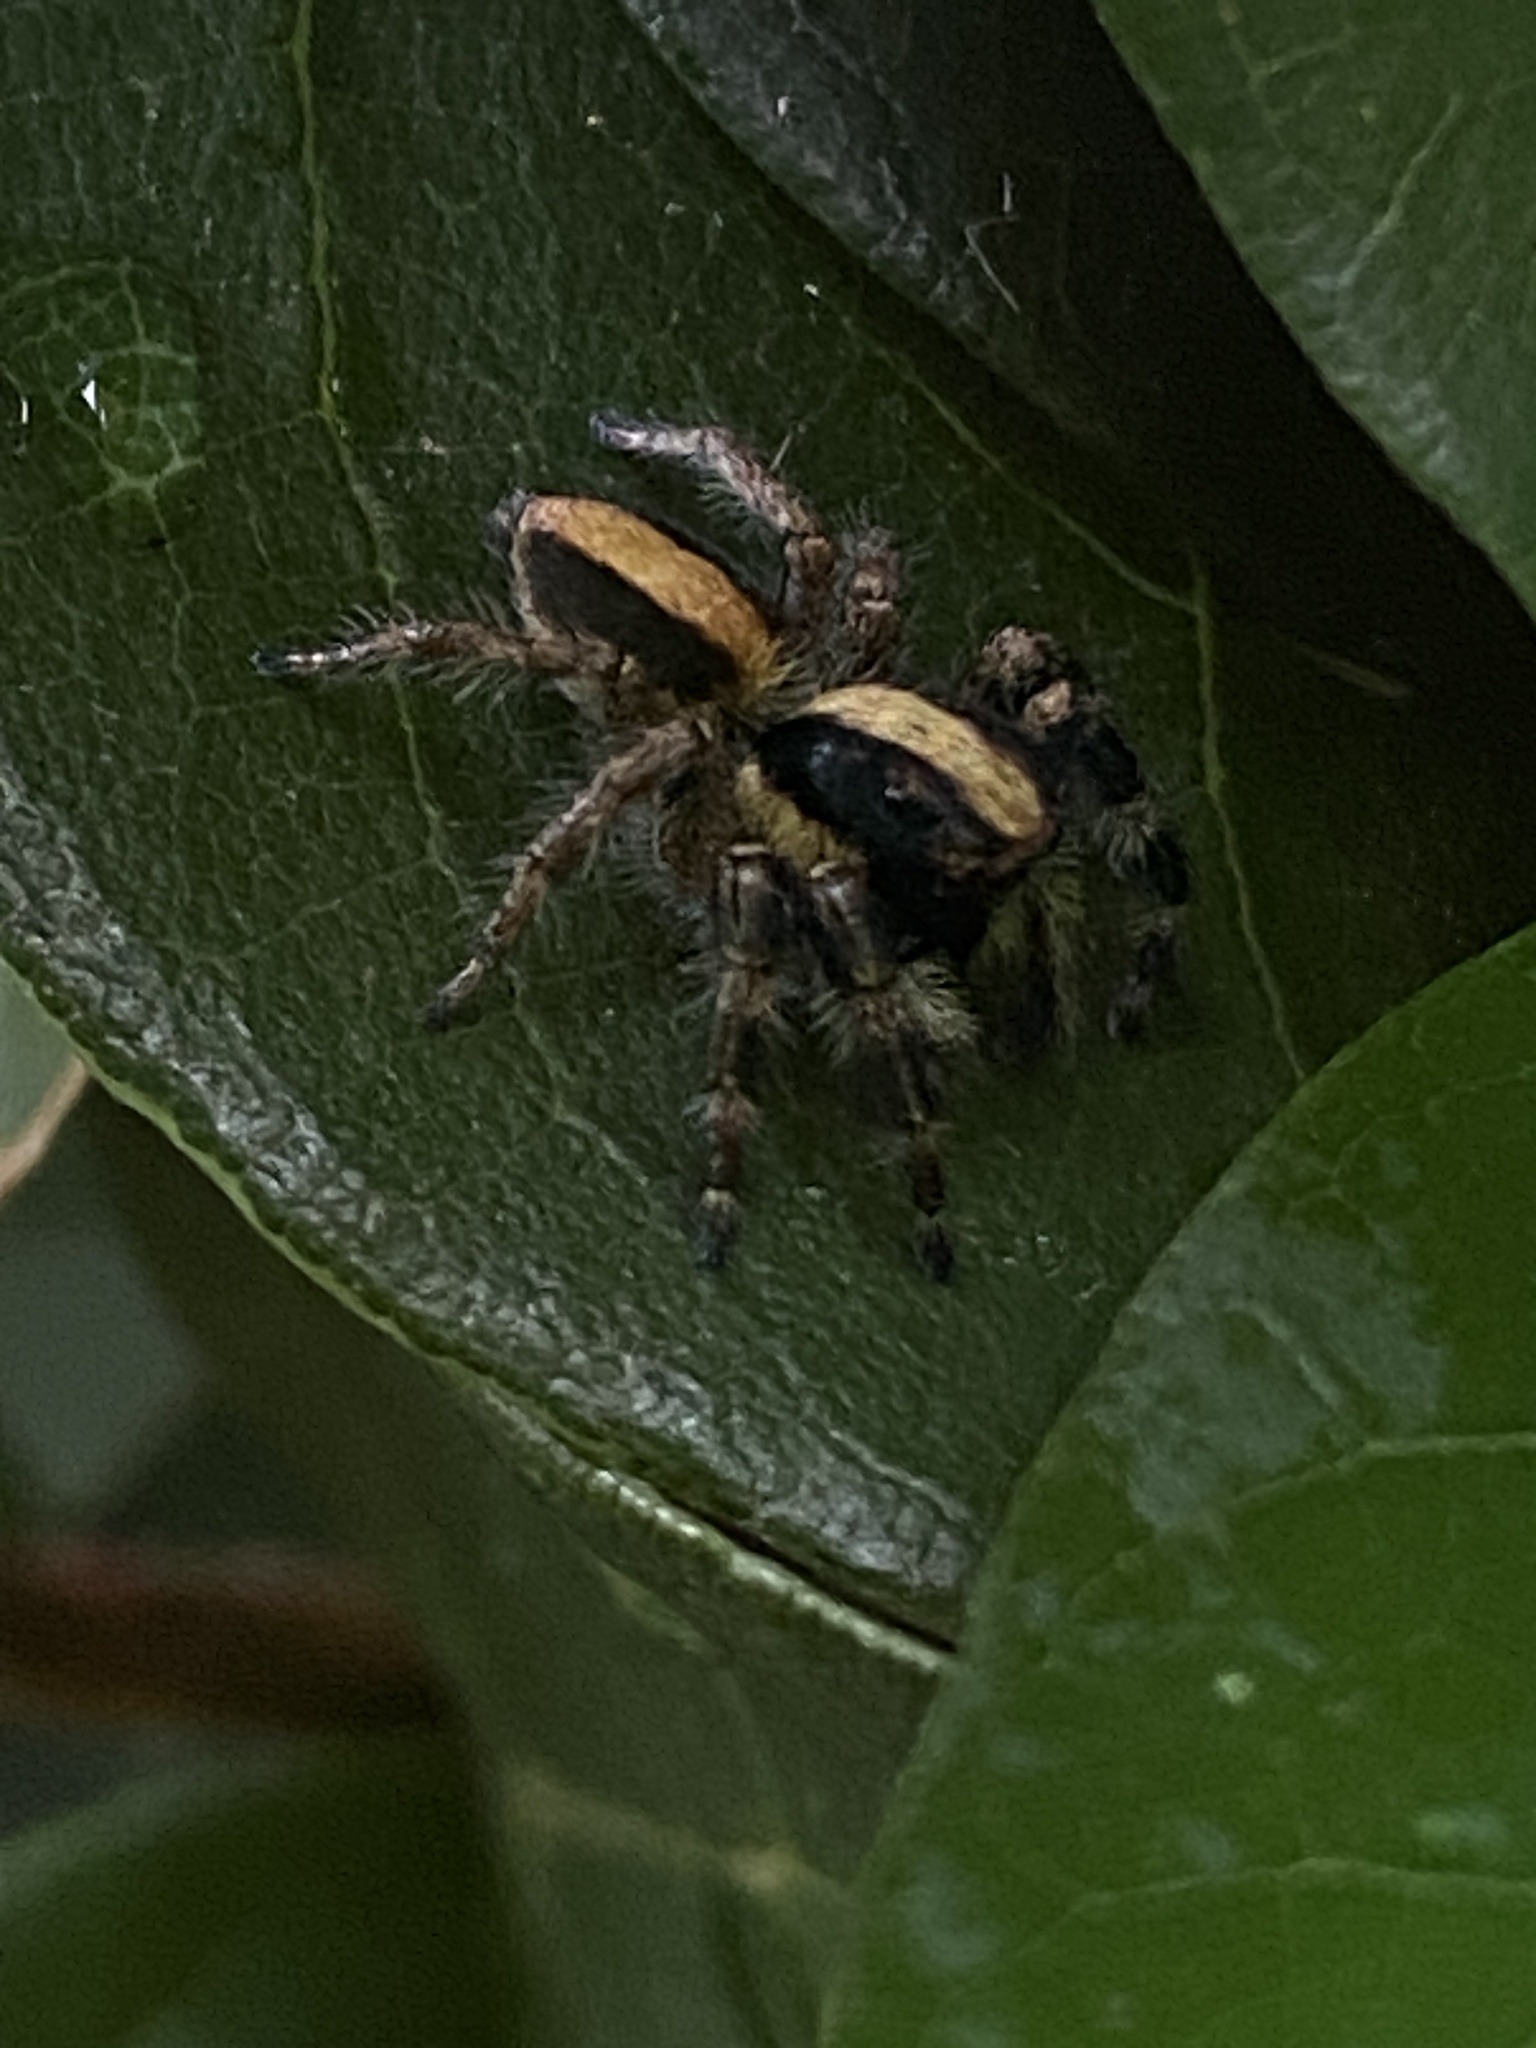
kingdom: Animalia
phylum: Arthropoda
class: Arachnida
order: Araneae
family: Salticidae
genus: Megafreya
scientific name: Megafreya sutrix
